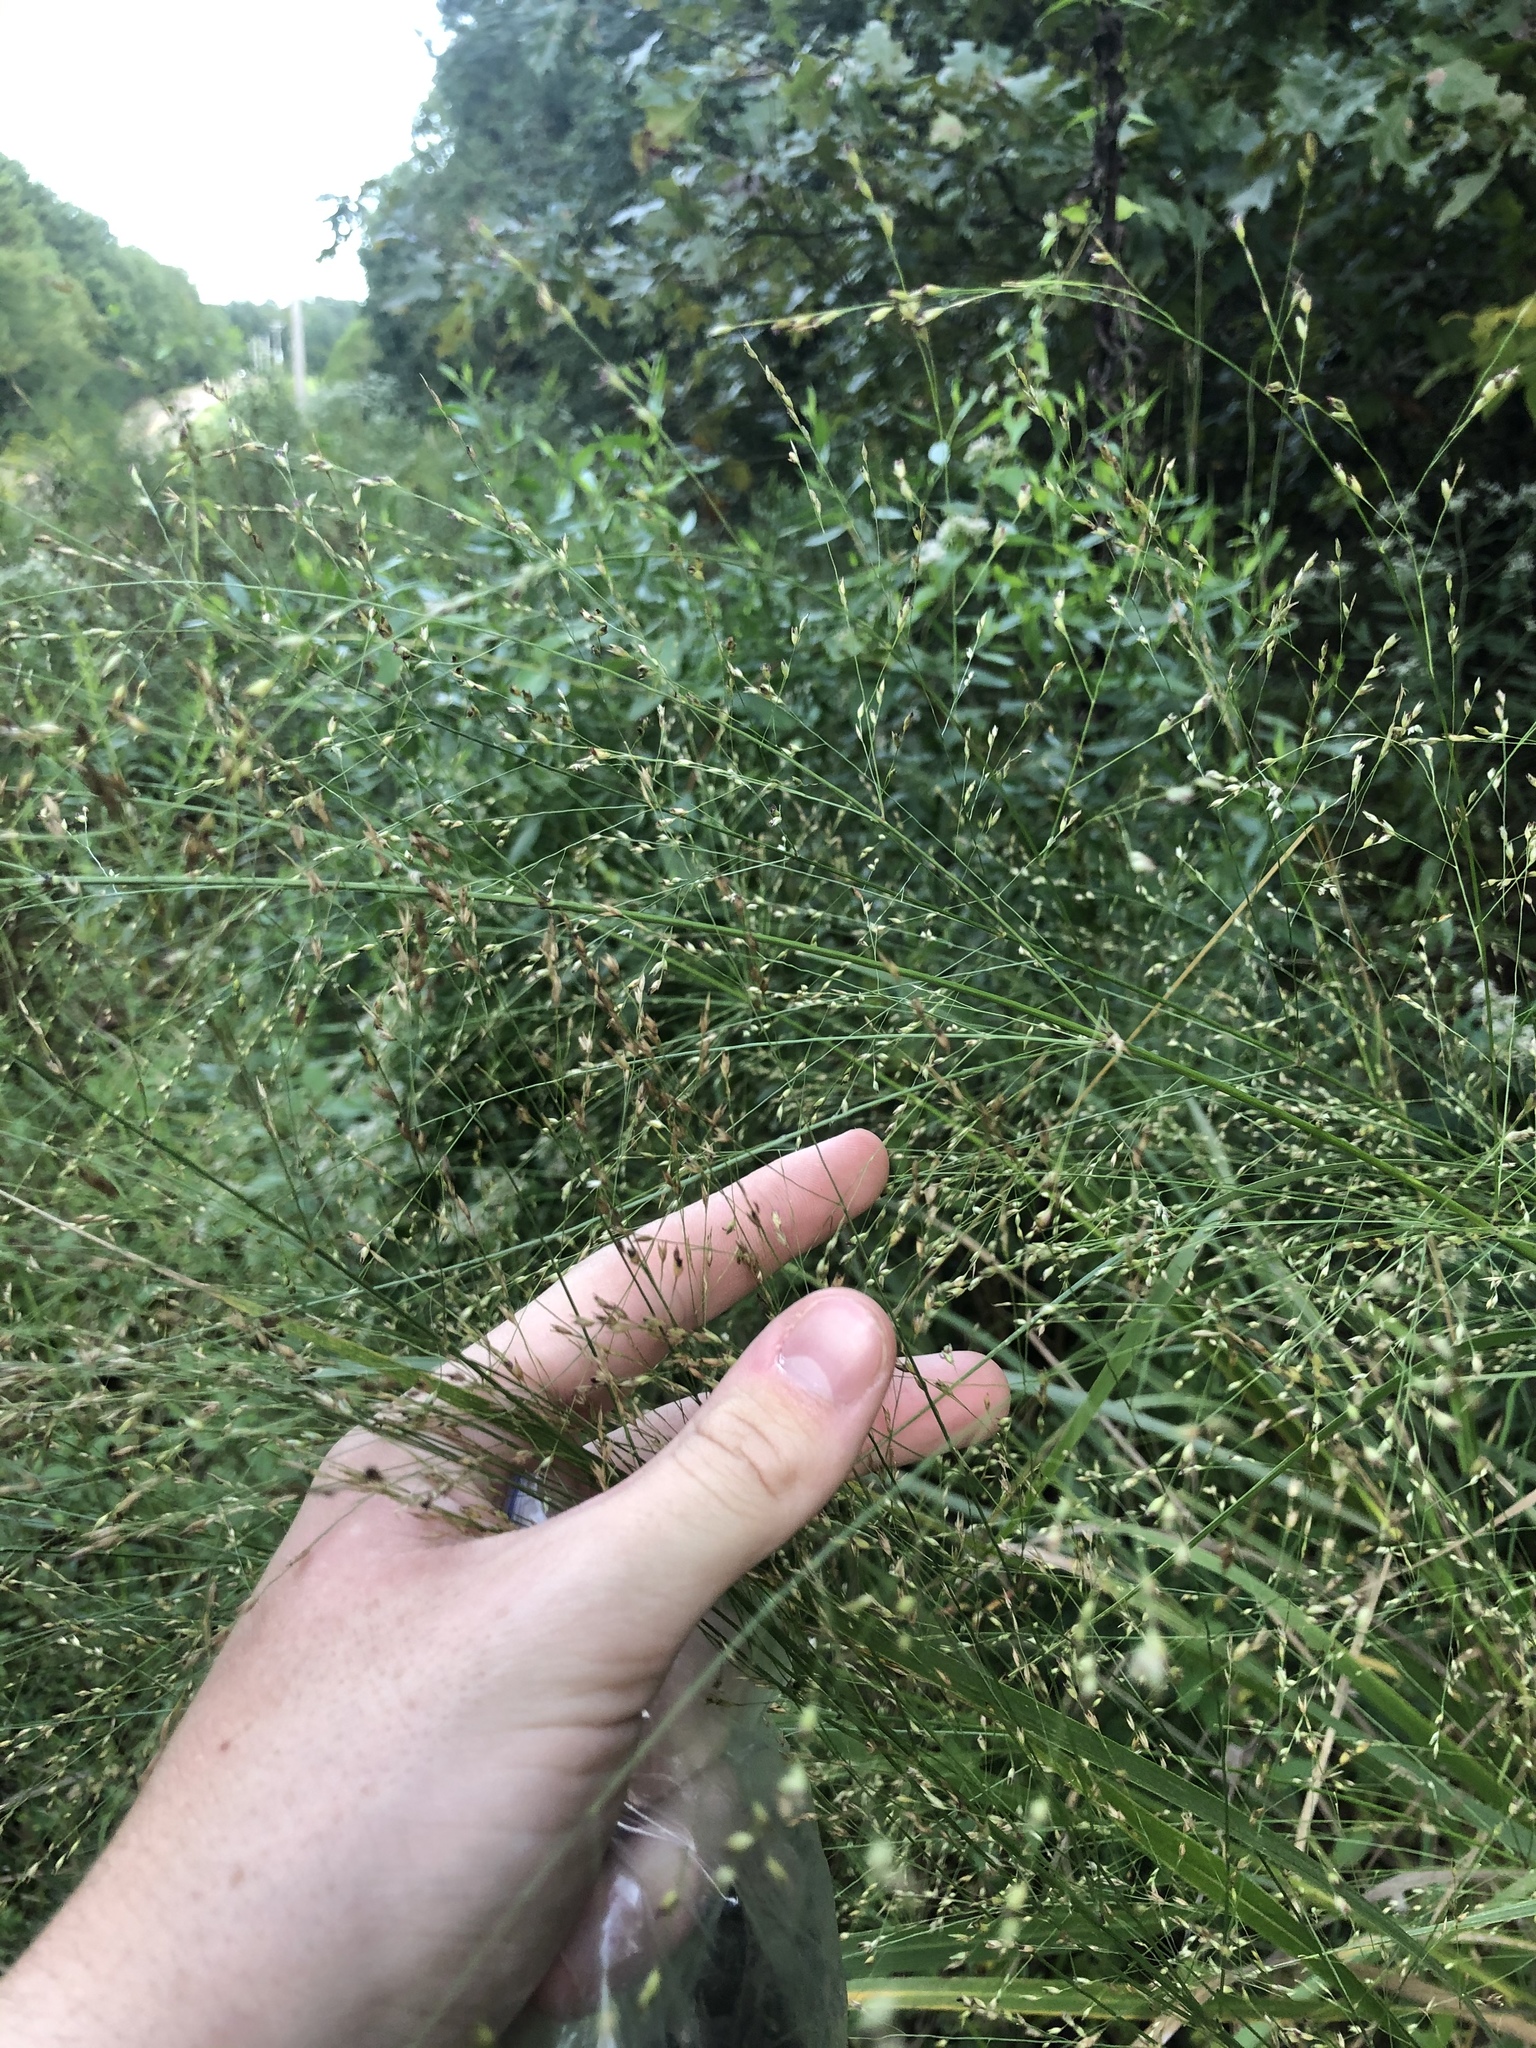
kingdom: Plantae
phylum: Tracheophyta
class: Liliopsida
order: Poales
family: Poaceae
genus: Panicum
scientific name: Panicum virgatum
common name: Switchgrass
